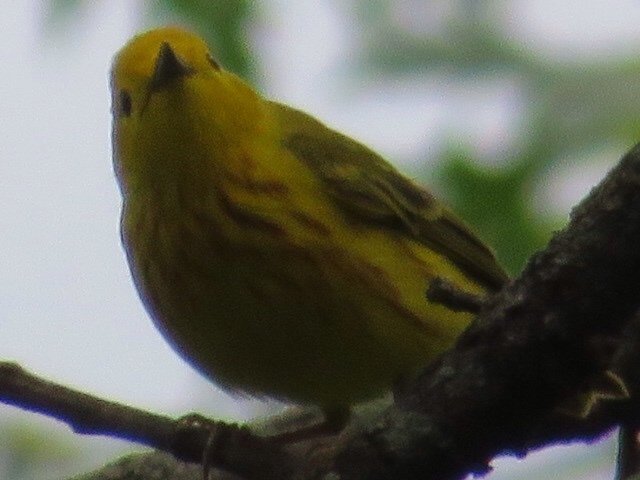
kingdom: Animalia
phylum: Chordata
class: Aves
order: Passeriformes
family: Parulidae
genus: Setophaga
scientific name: Setophaga petechia
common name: Yellow warbler
